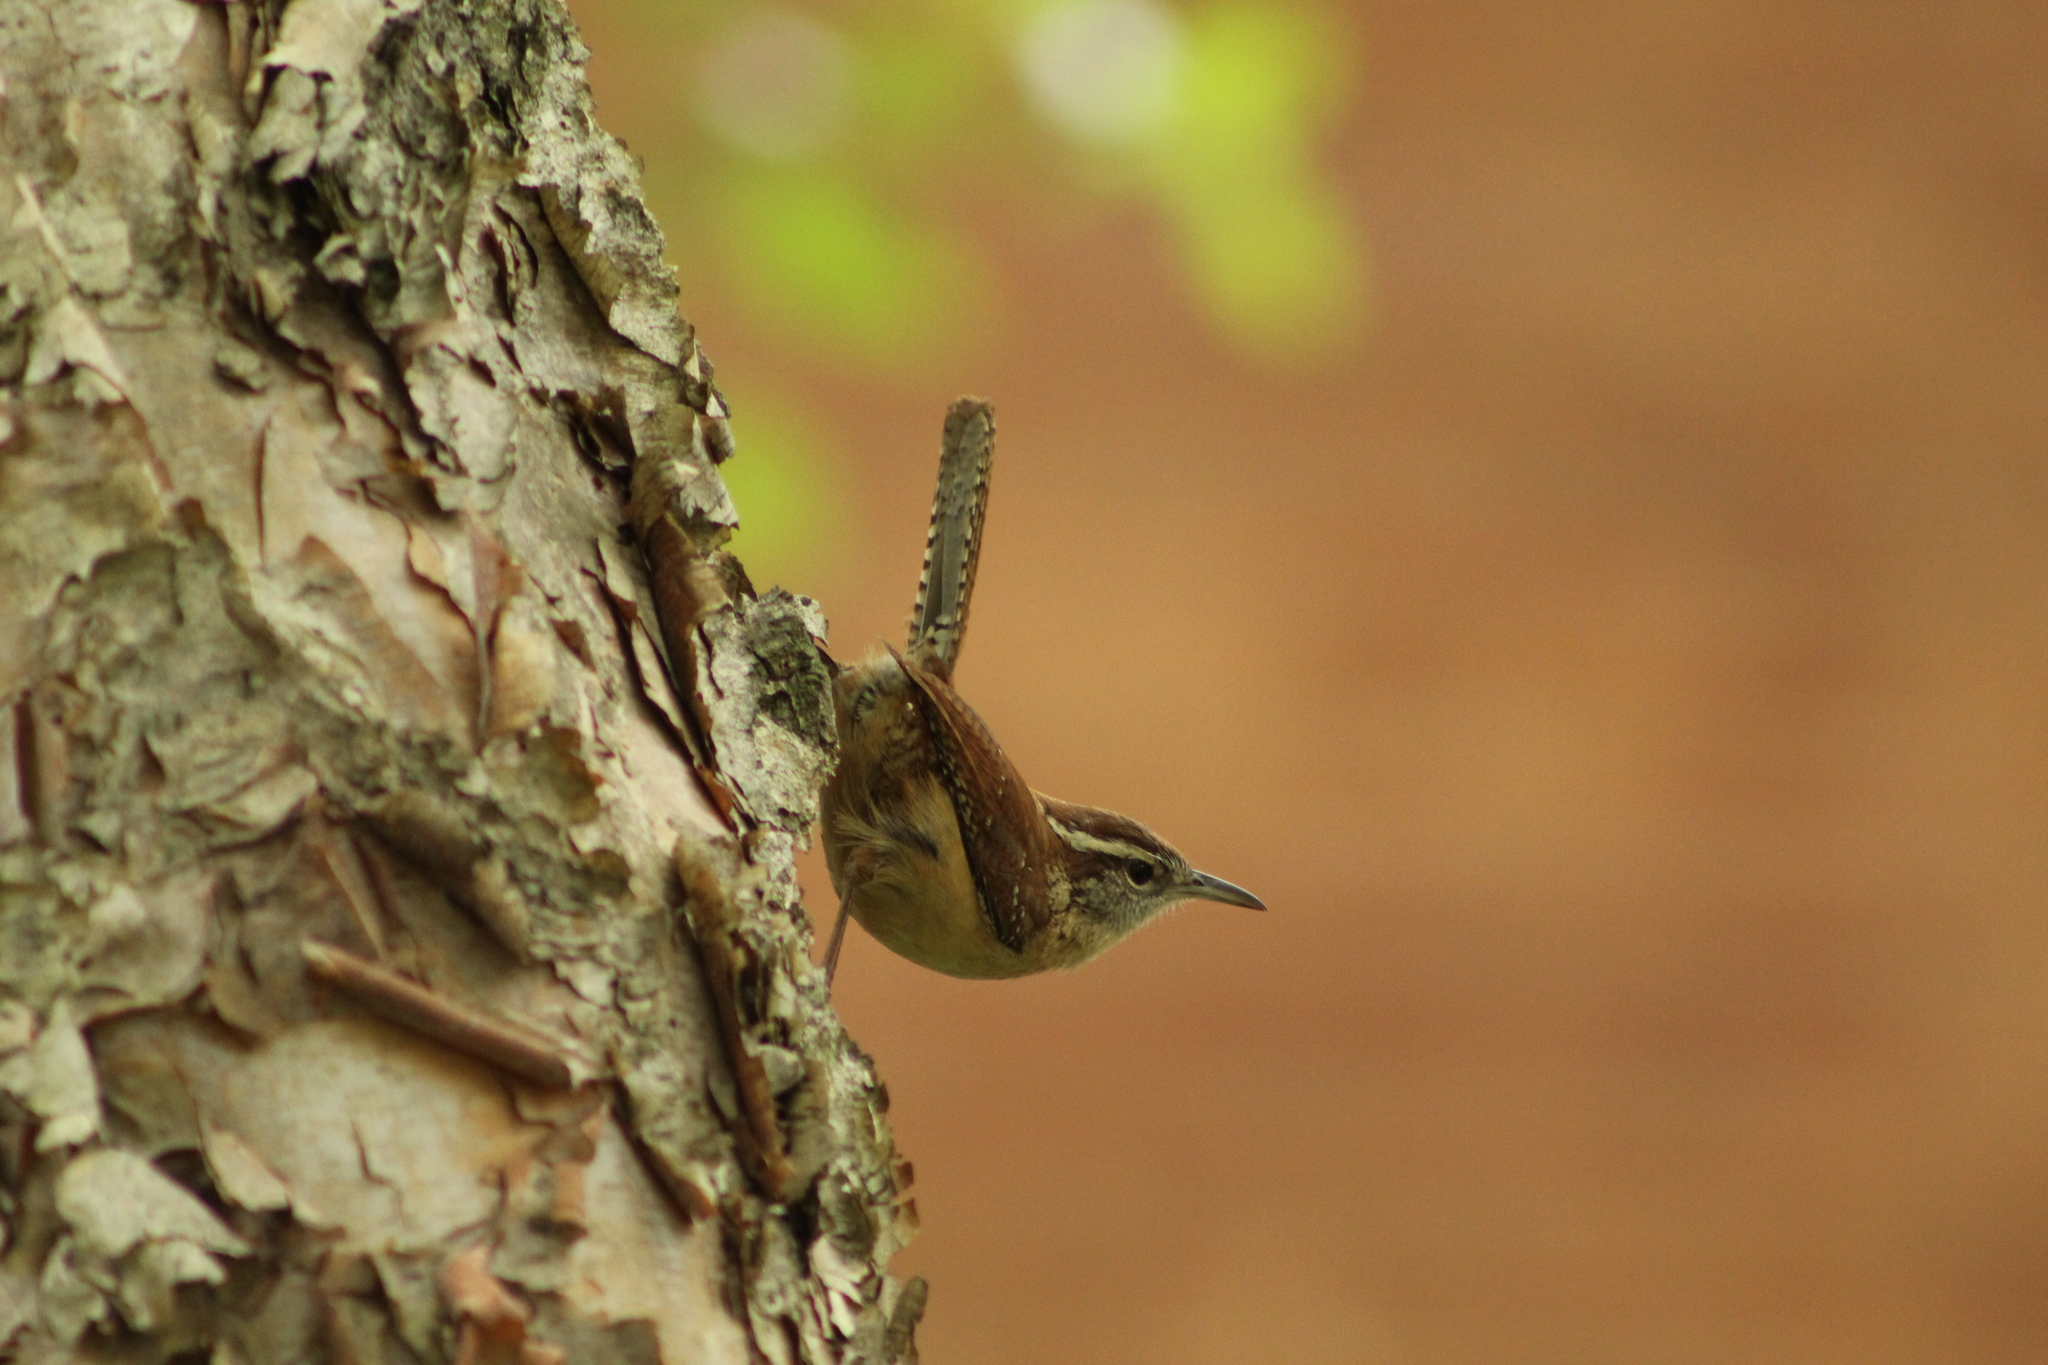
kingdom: Animalia
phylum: Chordata
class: Aves
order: Passeriformes
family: Troglodytidae
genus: Thryothorus
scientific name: Thryothorus ludovicianus
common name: Carolina wren
